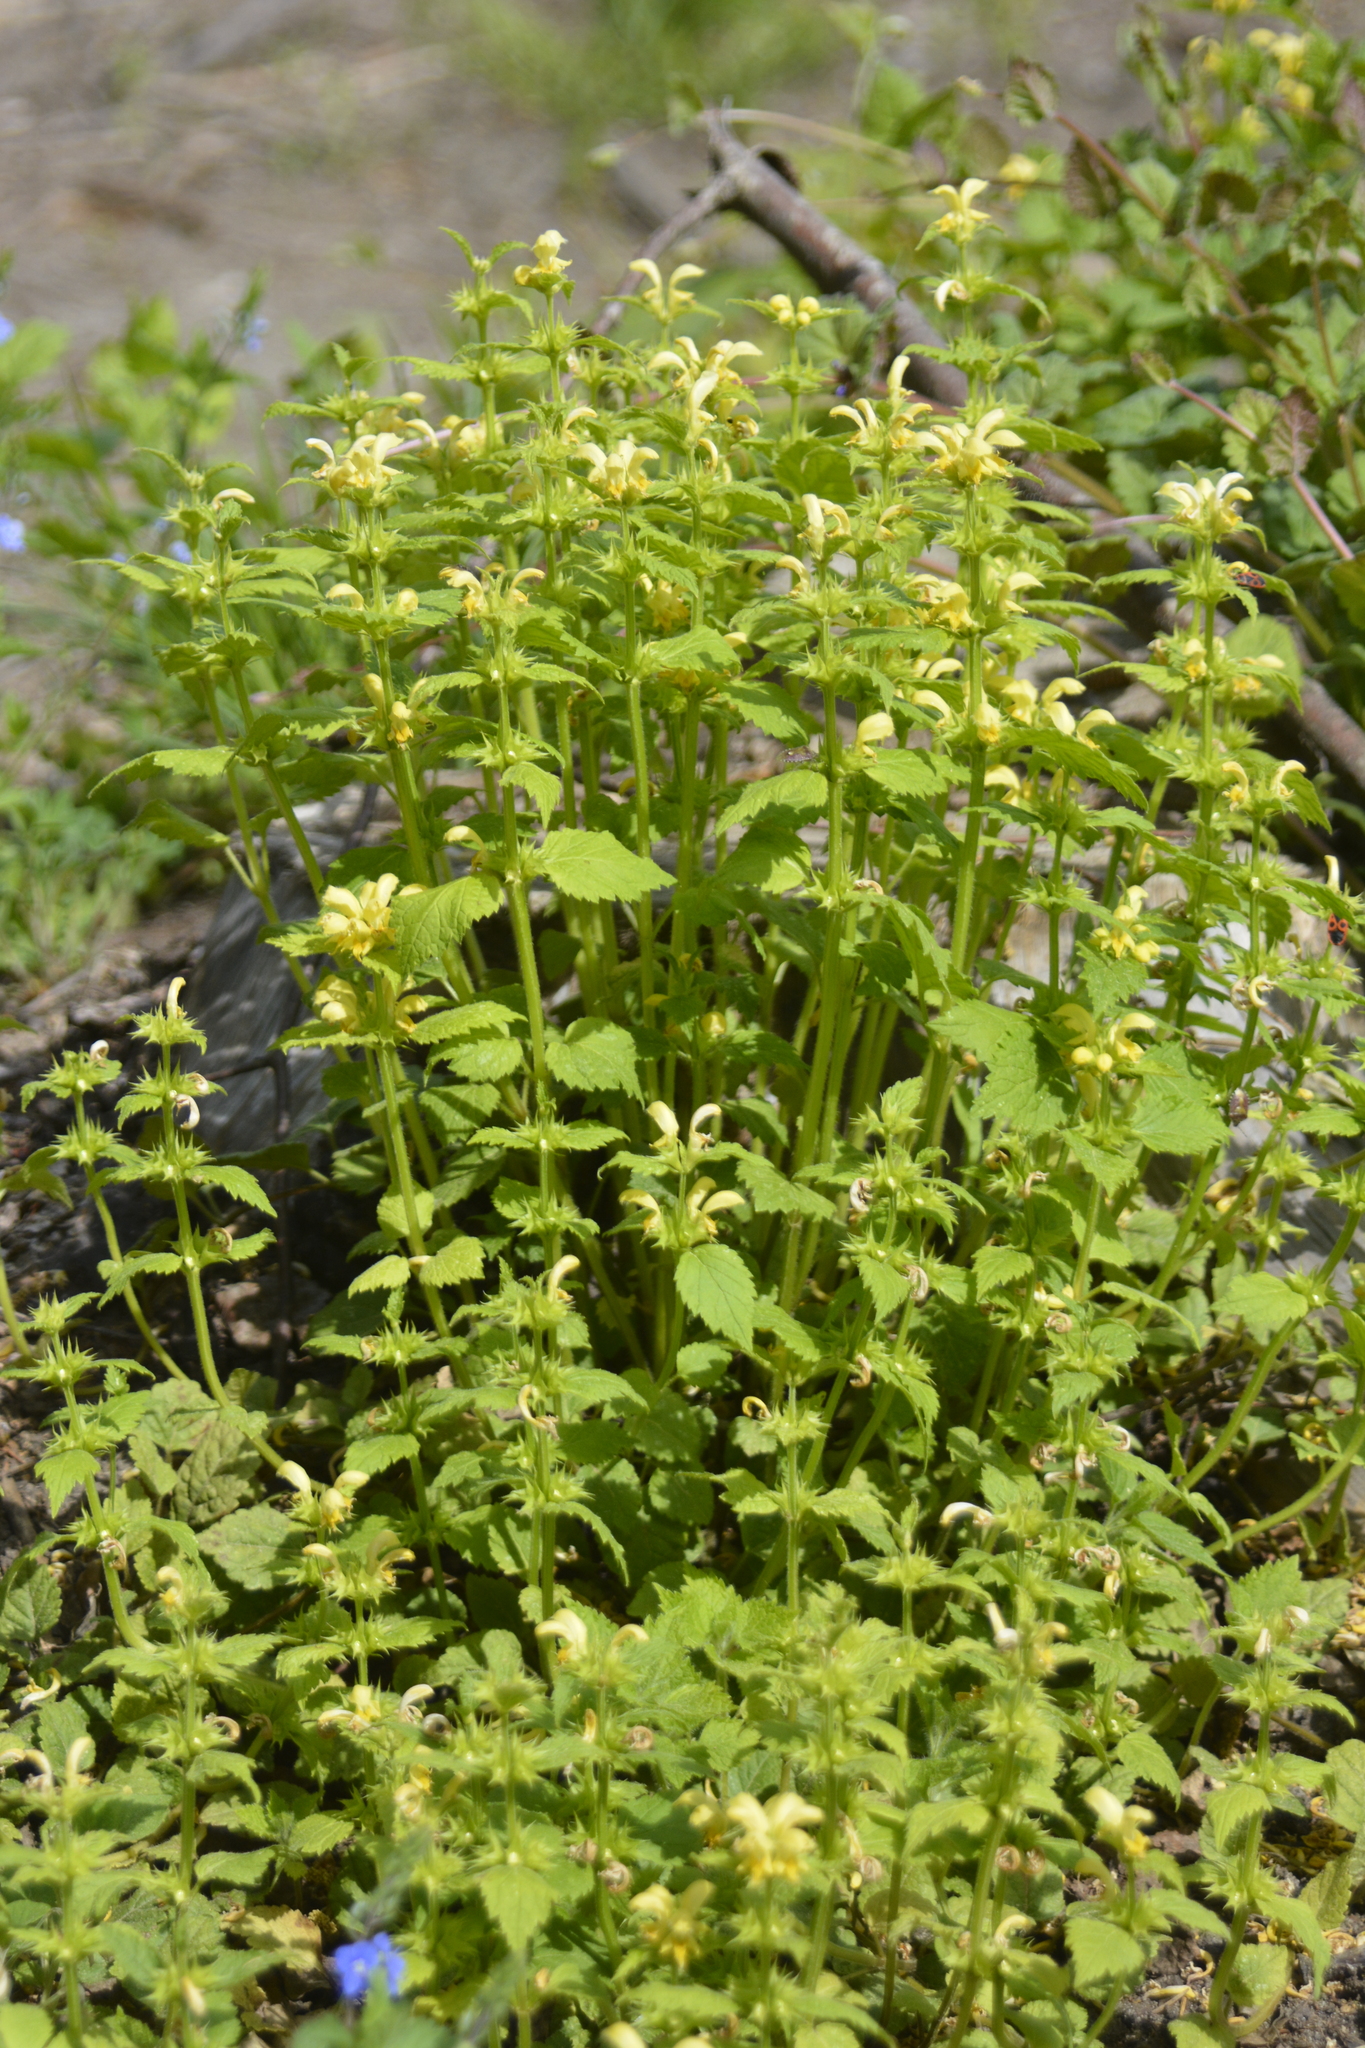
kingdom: Plantae
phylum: Tracheophyta
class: Magnoliopsida
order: Lamiales
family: Lamiaceae
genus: Lamium
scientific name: Lamium galeobdolon
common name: Yellow archangel
